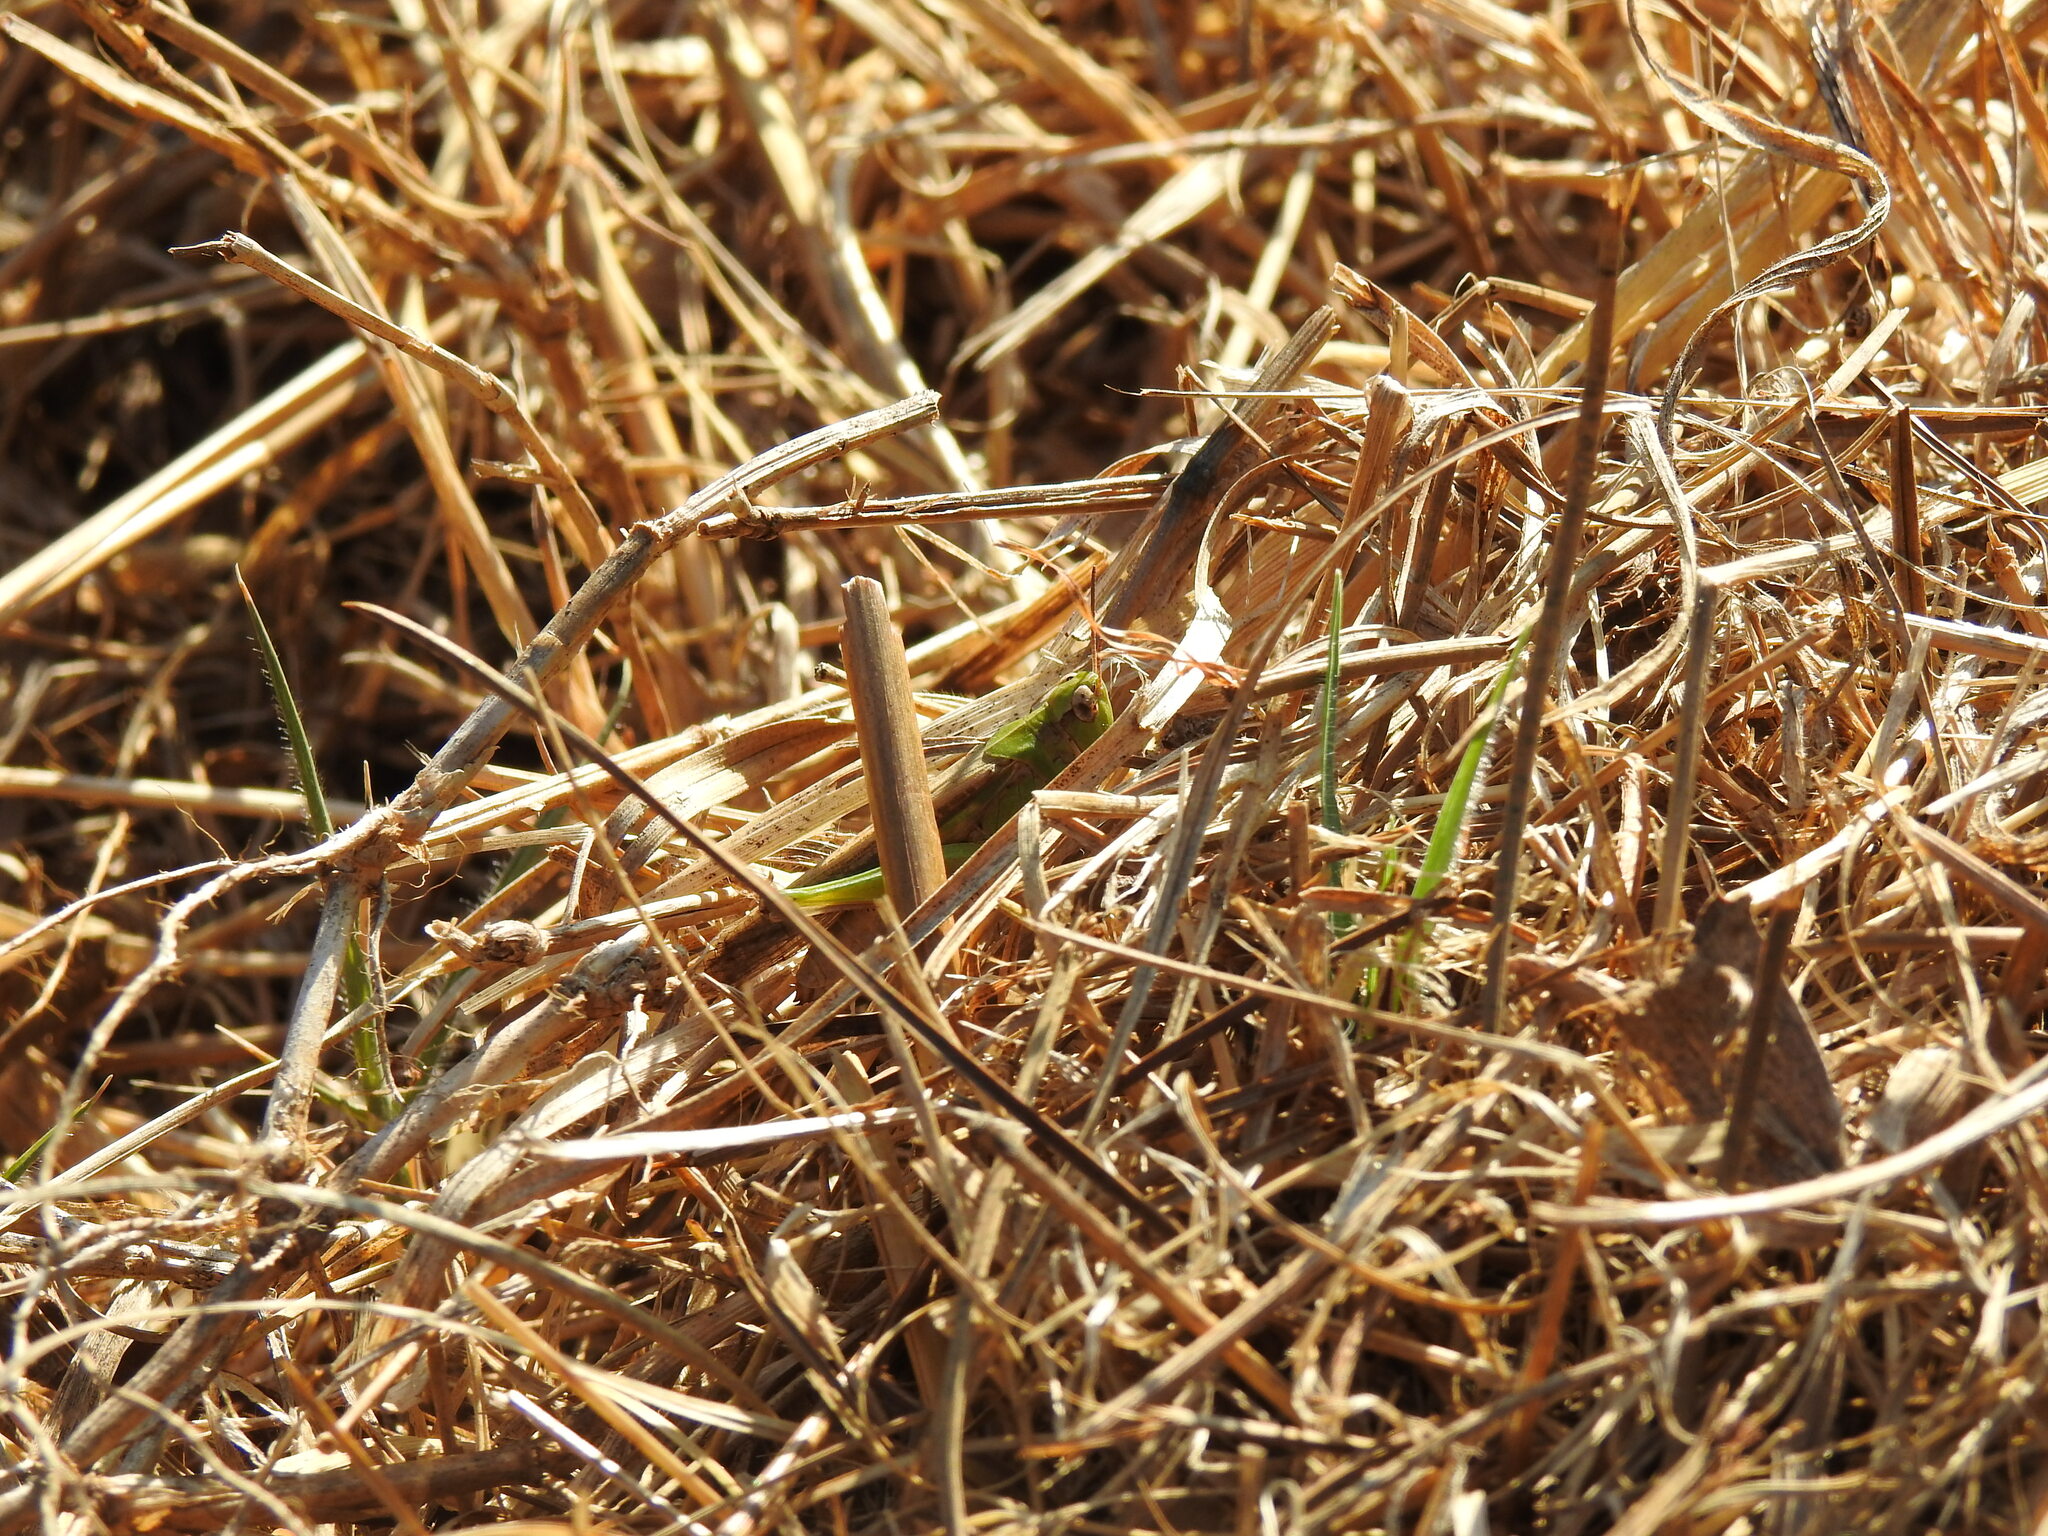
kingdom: Animalia
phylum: Arthropoda
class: Insecta
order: Orthoptera
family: Acrididae
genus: Aiolopus
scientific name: Aiolopus puissanti
